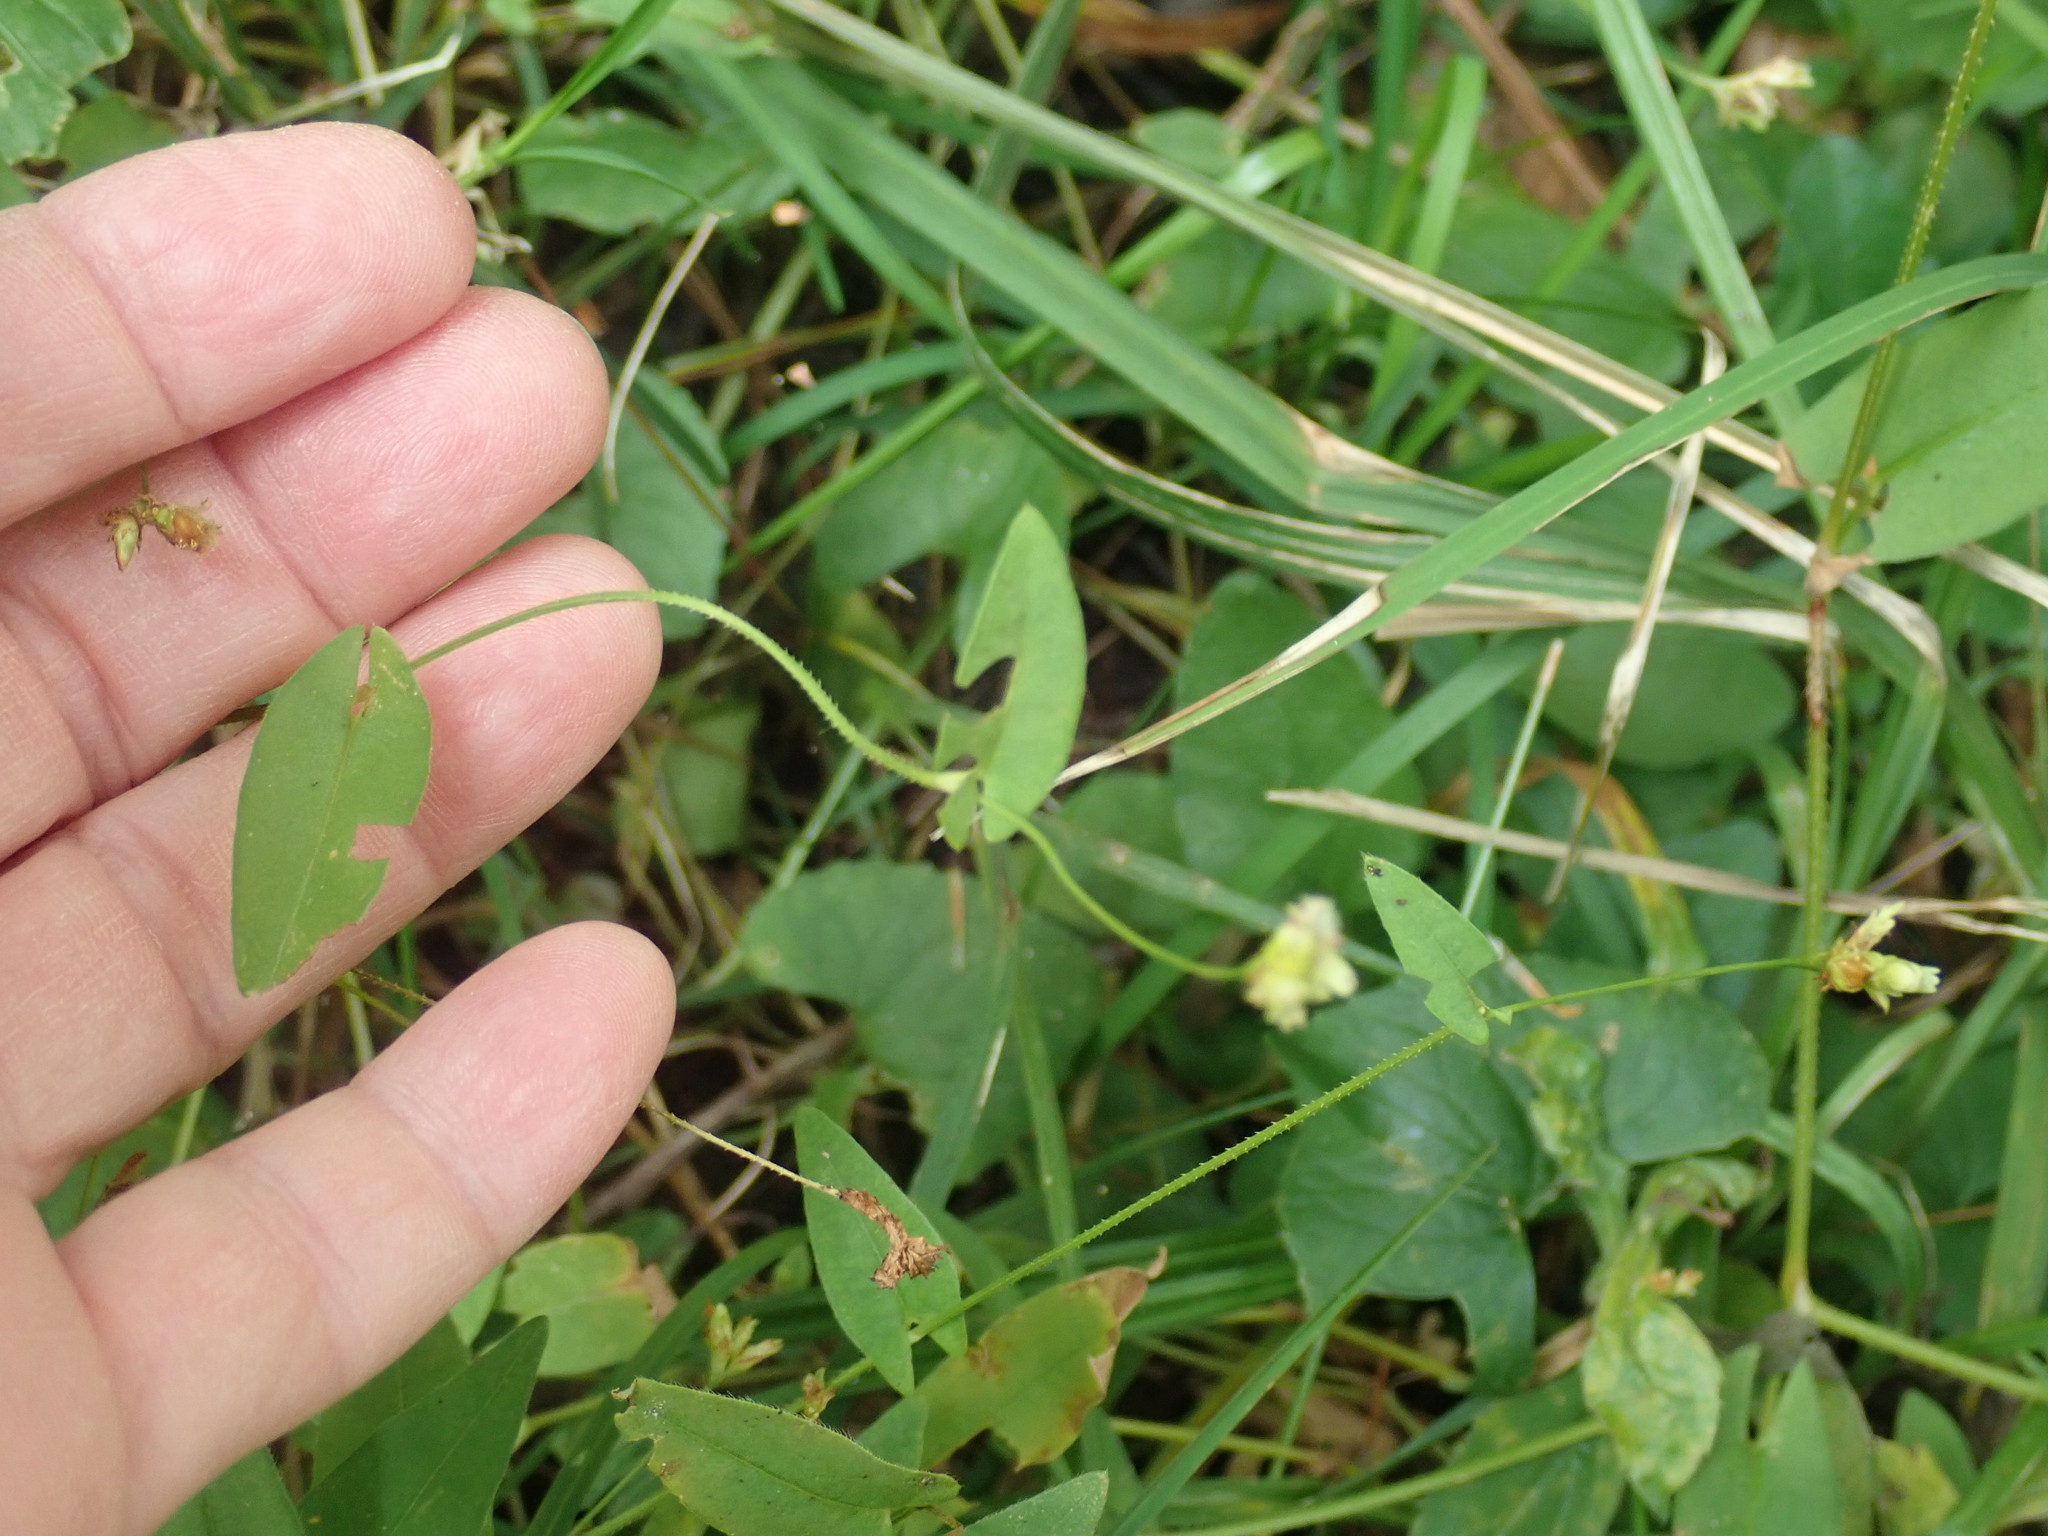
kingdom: Plantae
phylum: Tracheophyta
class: Magnoliopsida
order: Caryophyllales
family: Polygonaceae
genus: Persicaria
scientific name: Persicaria sagittata
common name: American tearthumb
